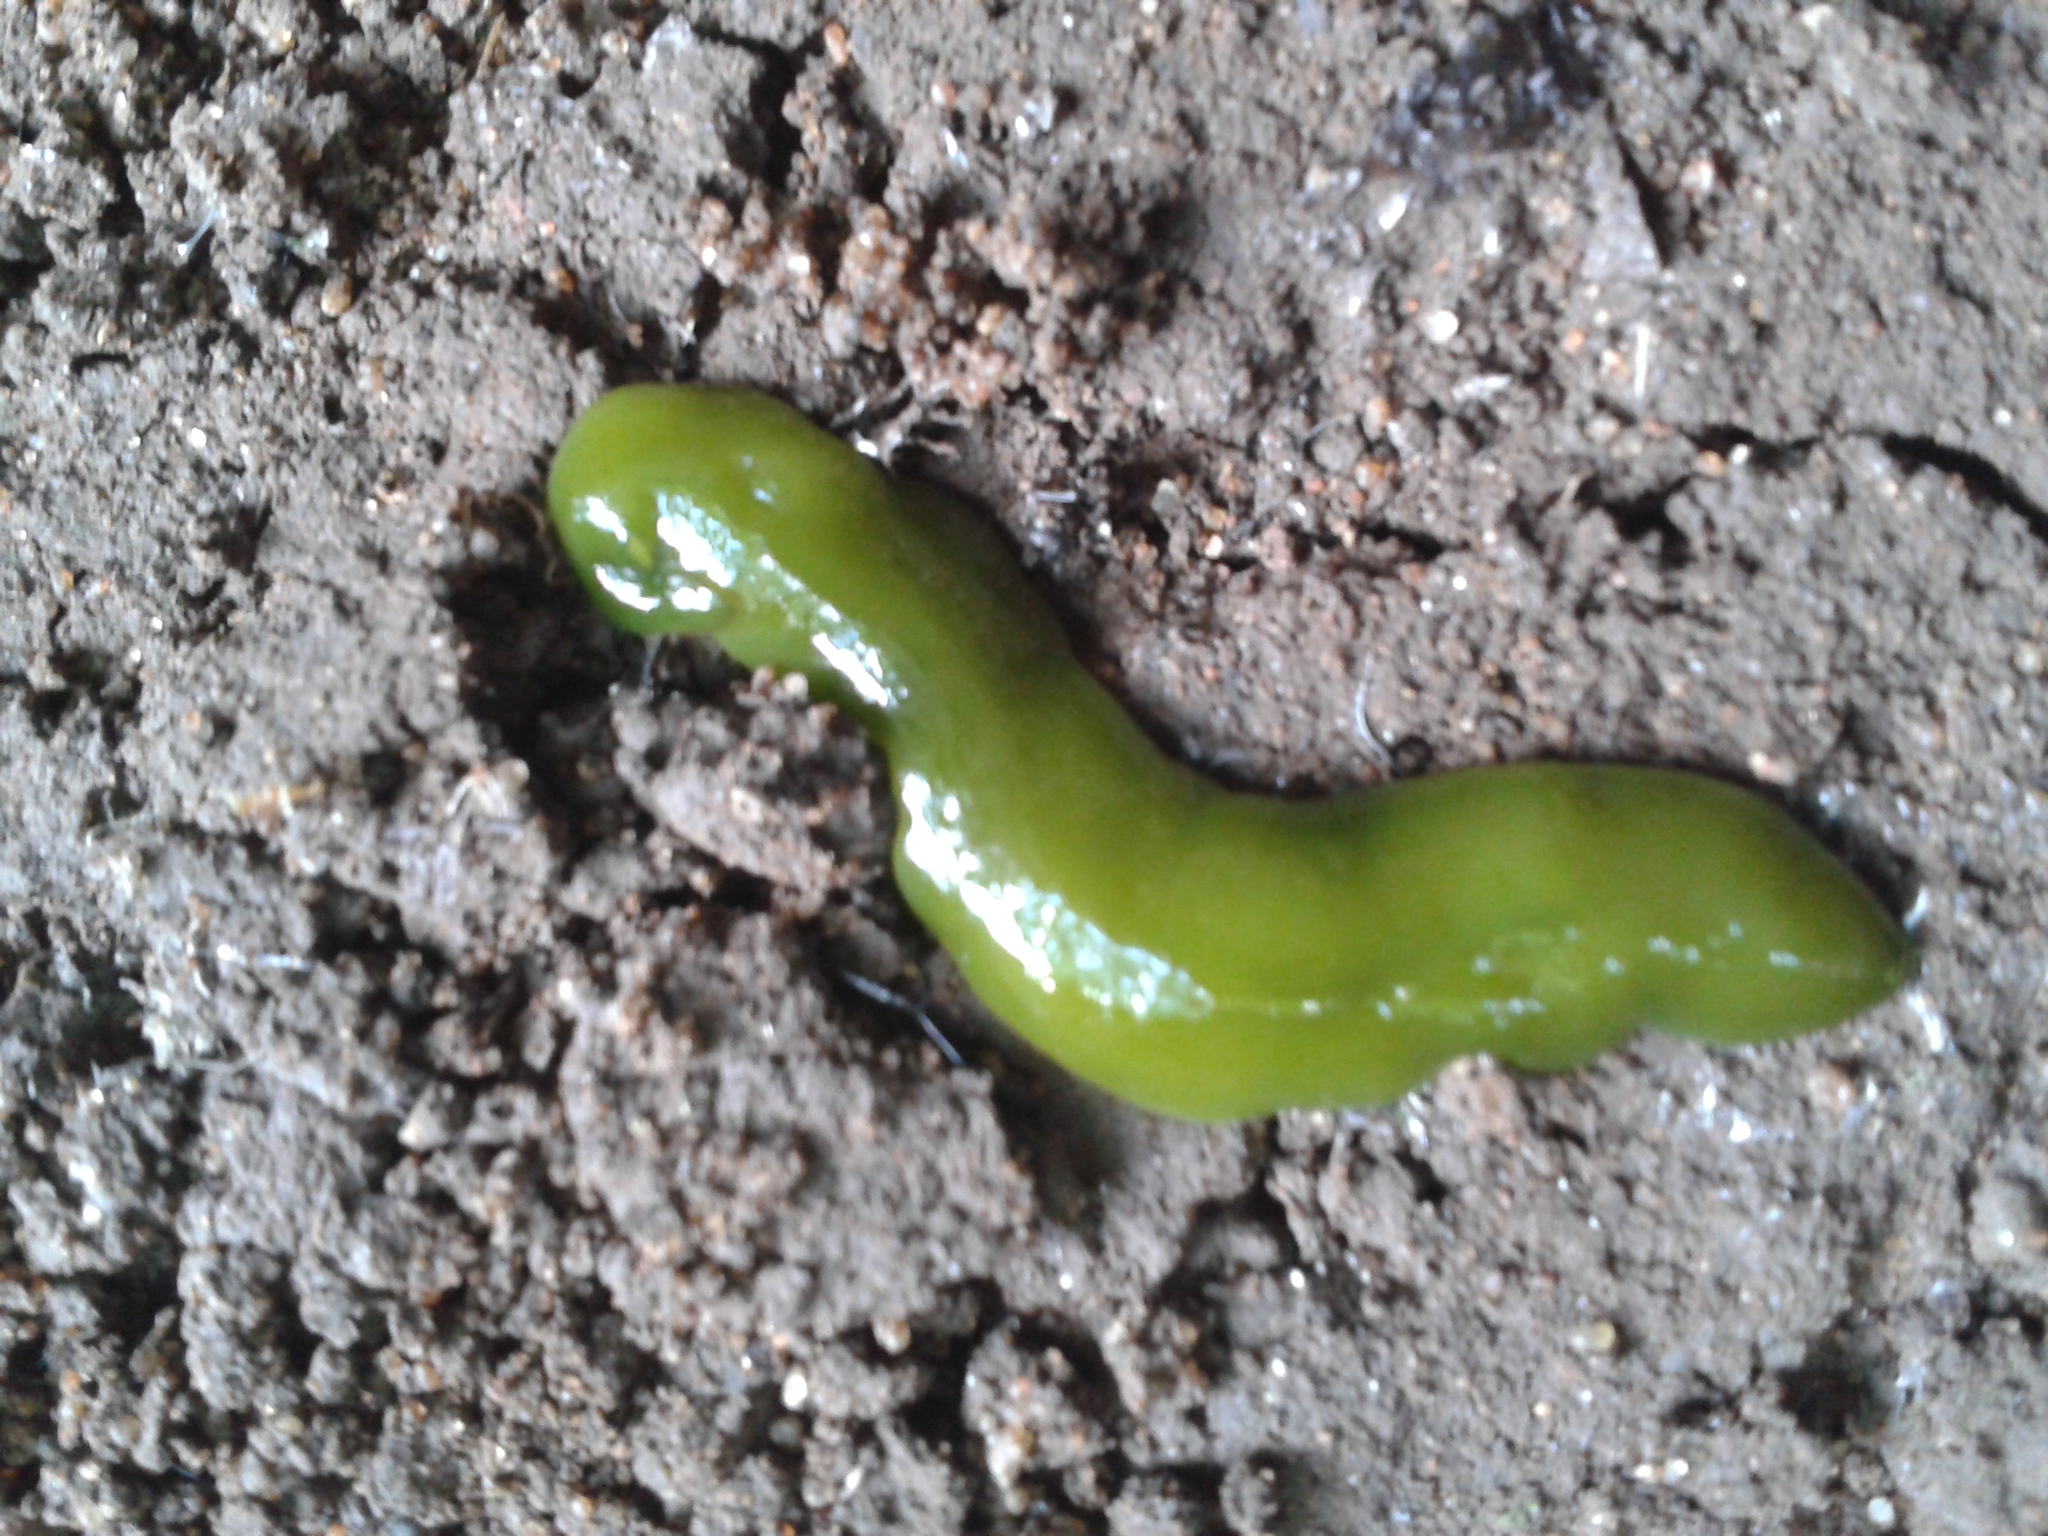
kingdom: Animalia
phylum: Platyhelminthes
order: Tricladida
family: Geoplanidae
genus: Obama
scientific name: Obama ladislavii
